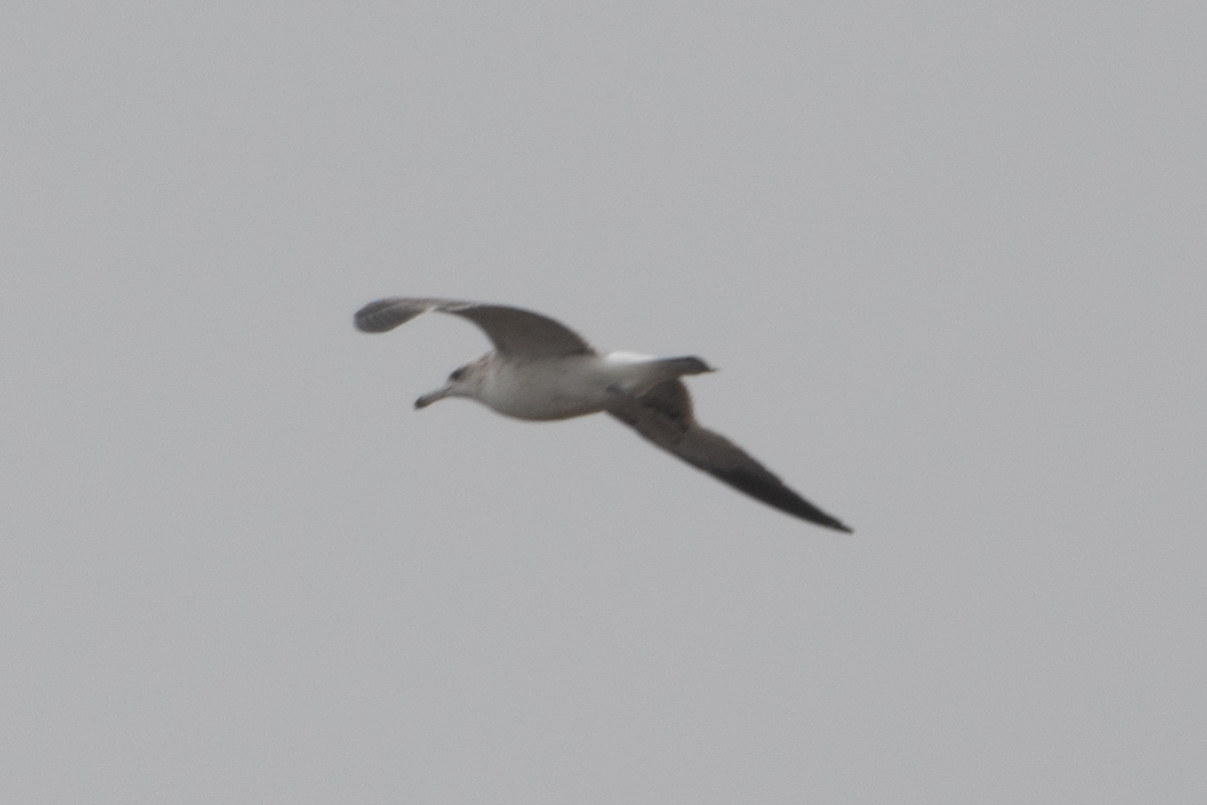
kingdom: Animalia
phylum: Chordata
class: Aves
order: Charadriiformes
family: Laridae
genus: Larus
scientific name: Larus californicus
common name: California gull
